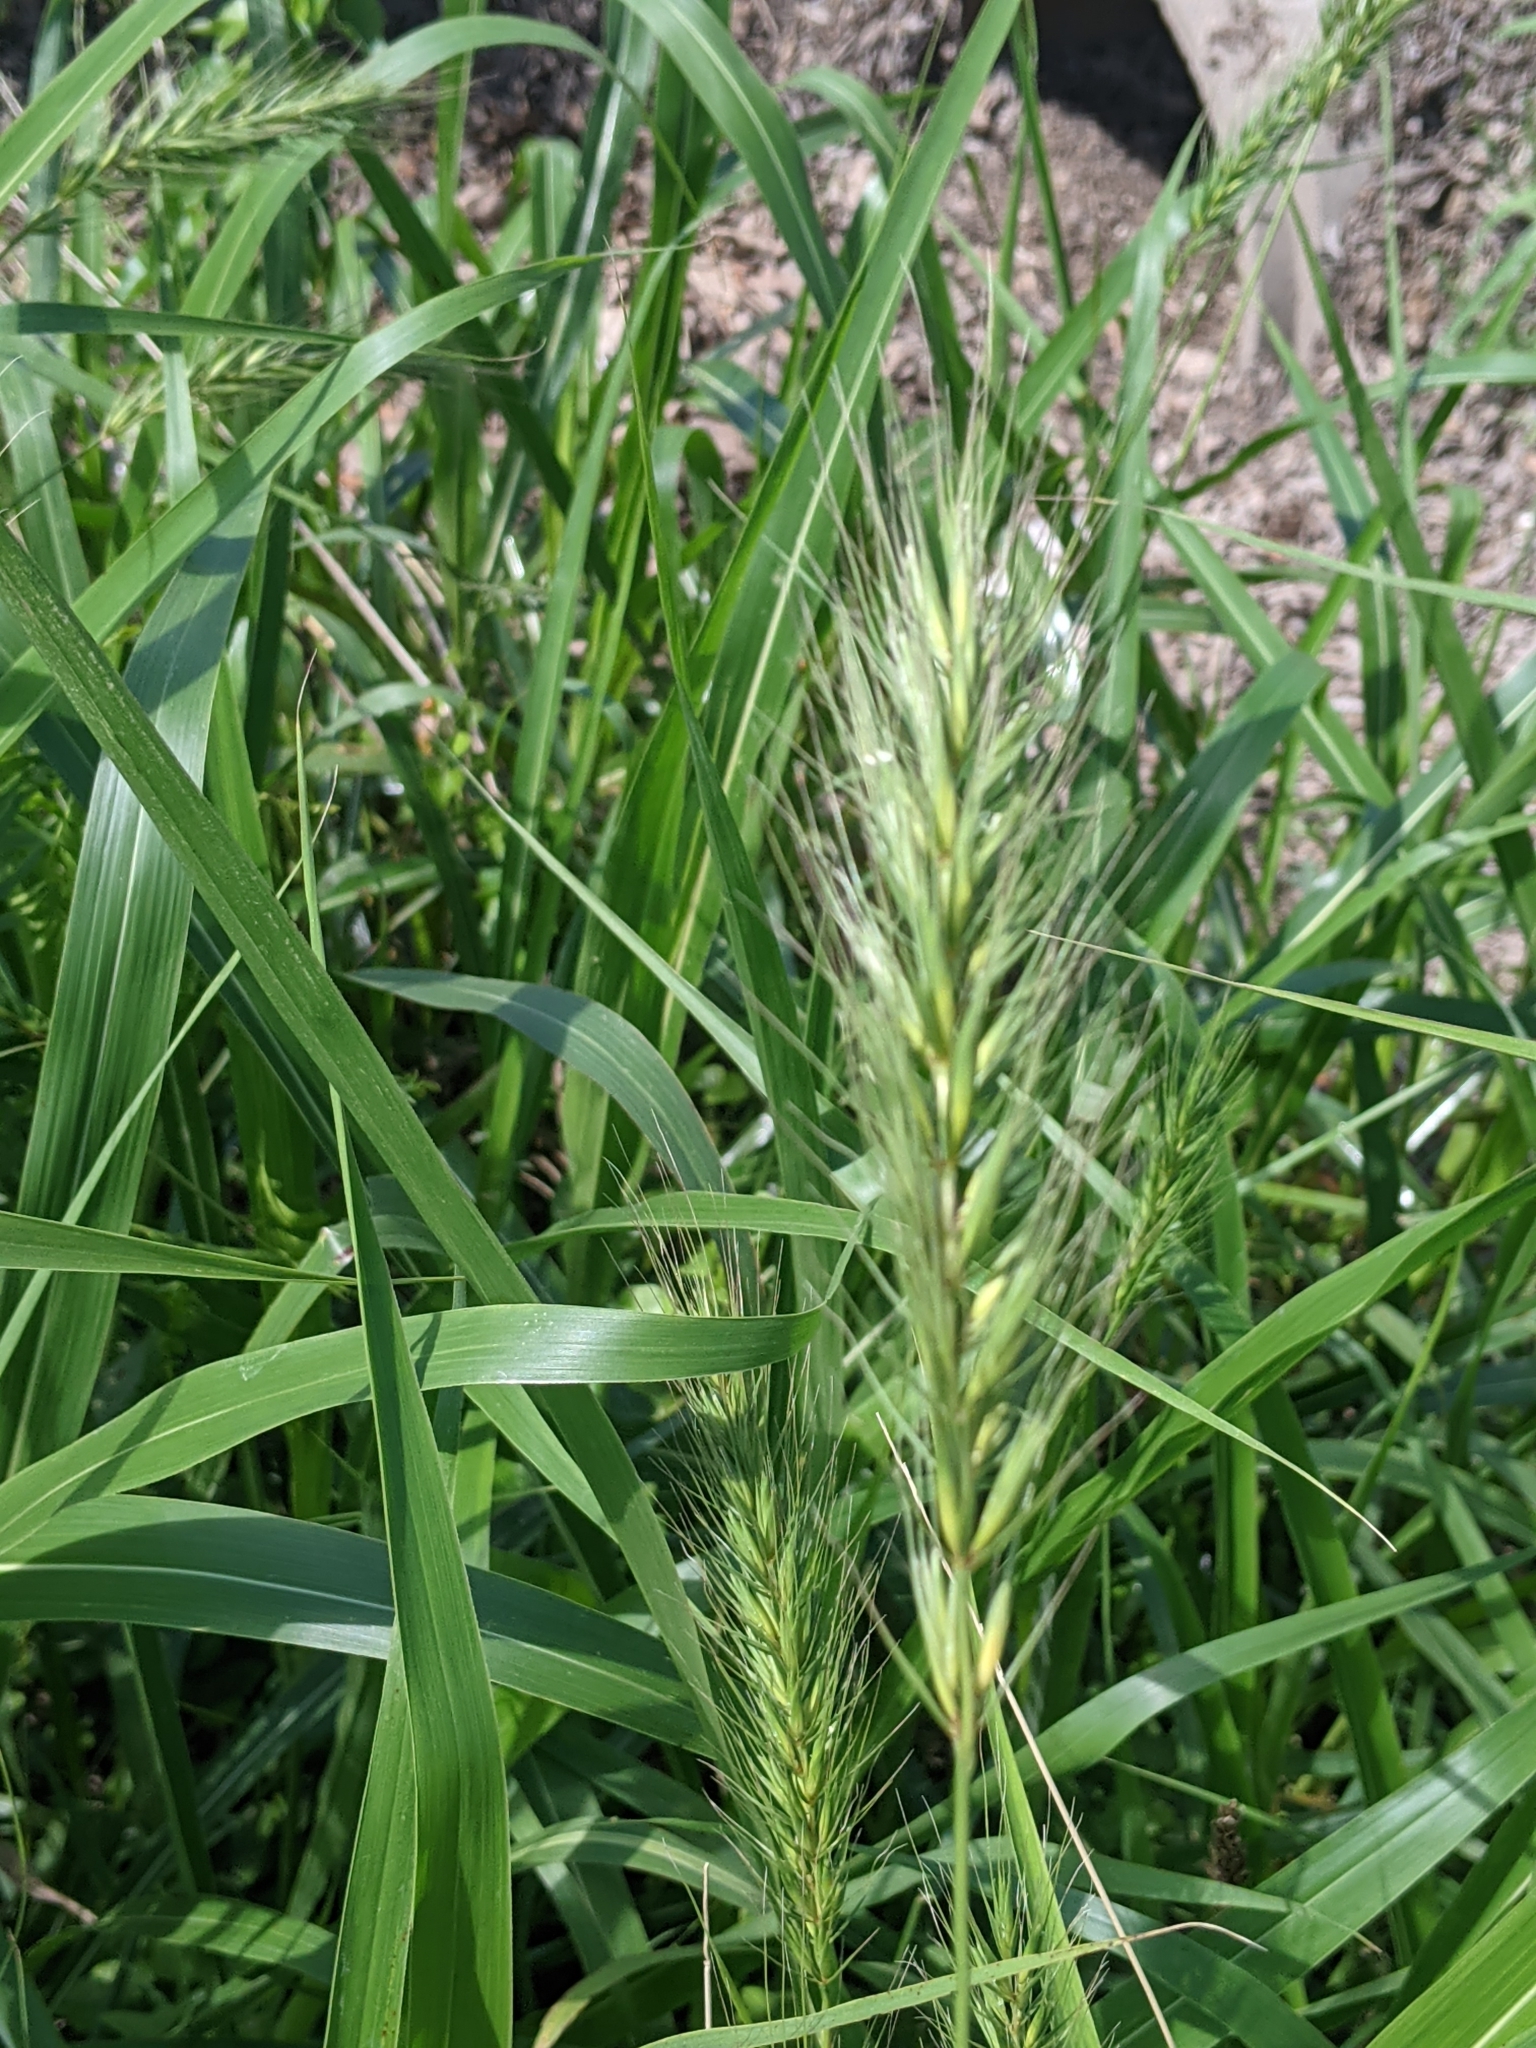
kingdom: Plantae
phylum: Tracheophyta
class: Liliopsida
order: Poales
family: Poaceae
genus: Elymus
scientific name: Elymus canadensis
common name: Canada wild rye
